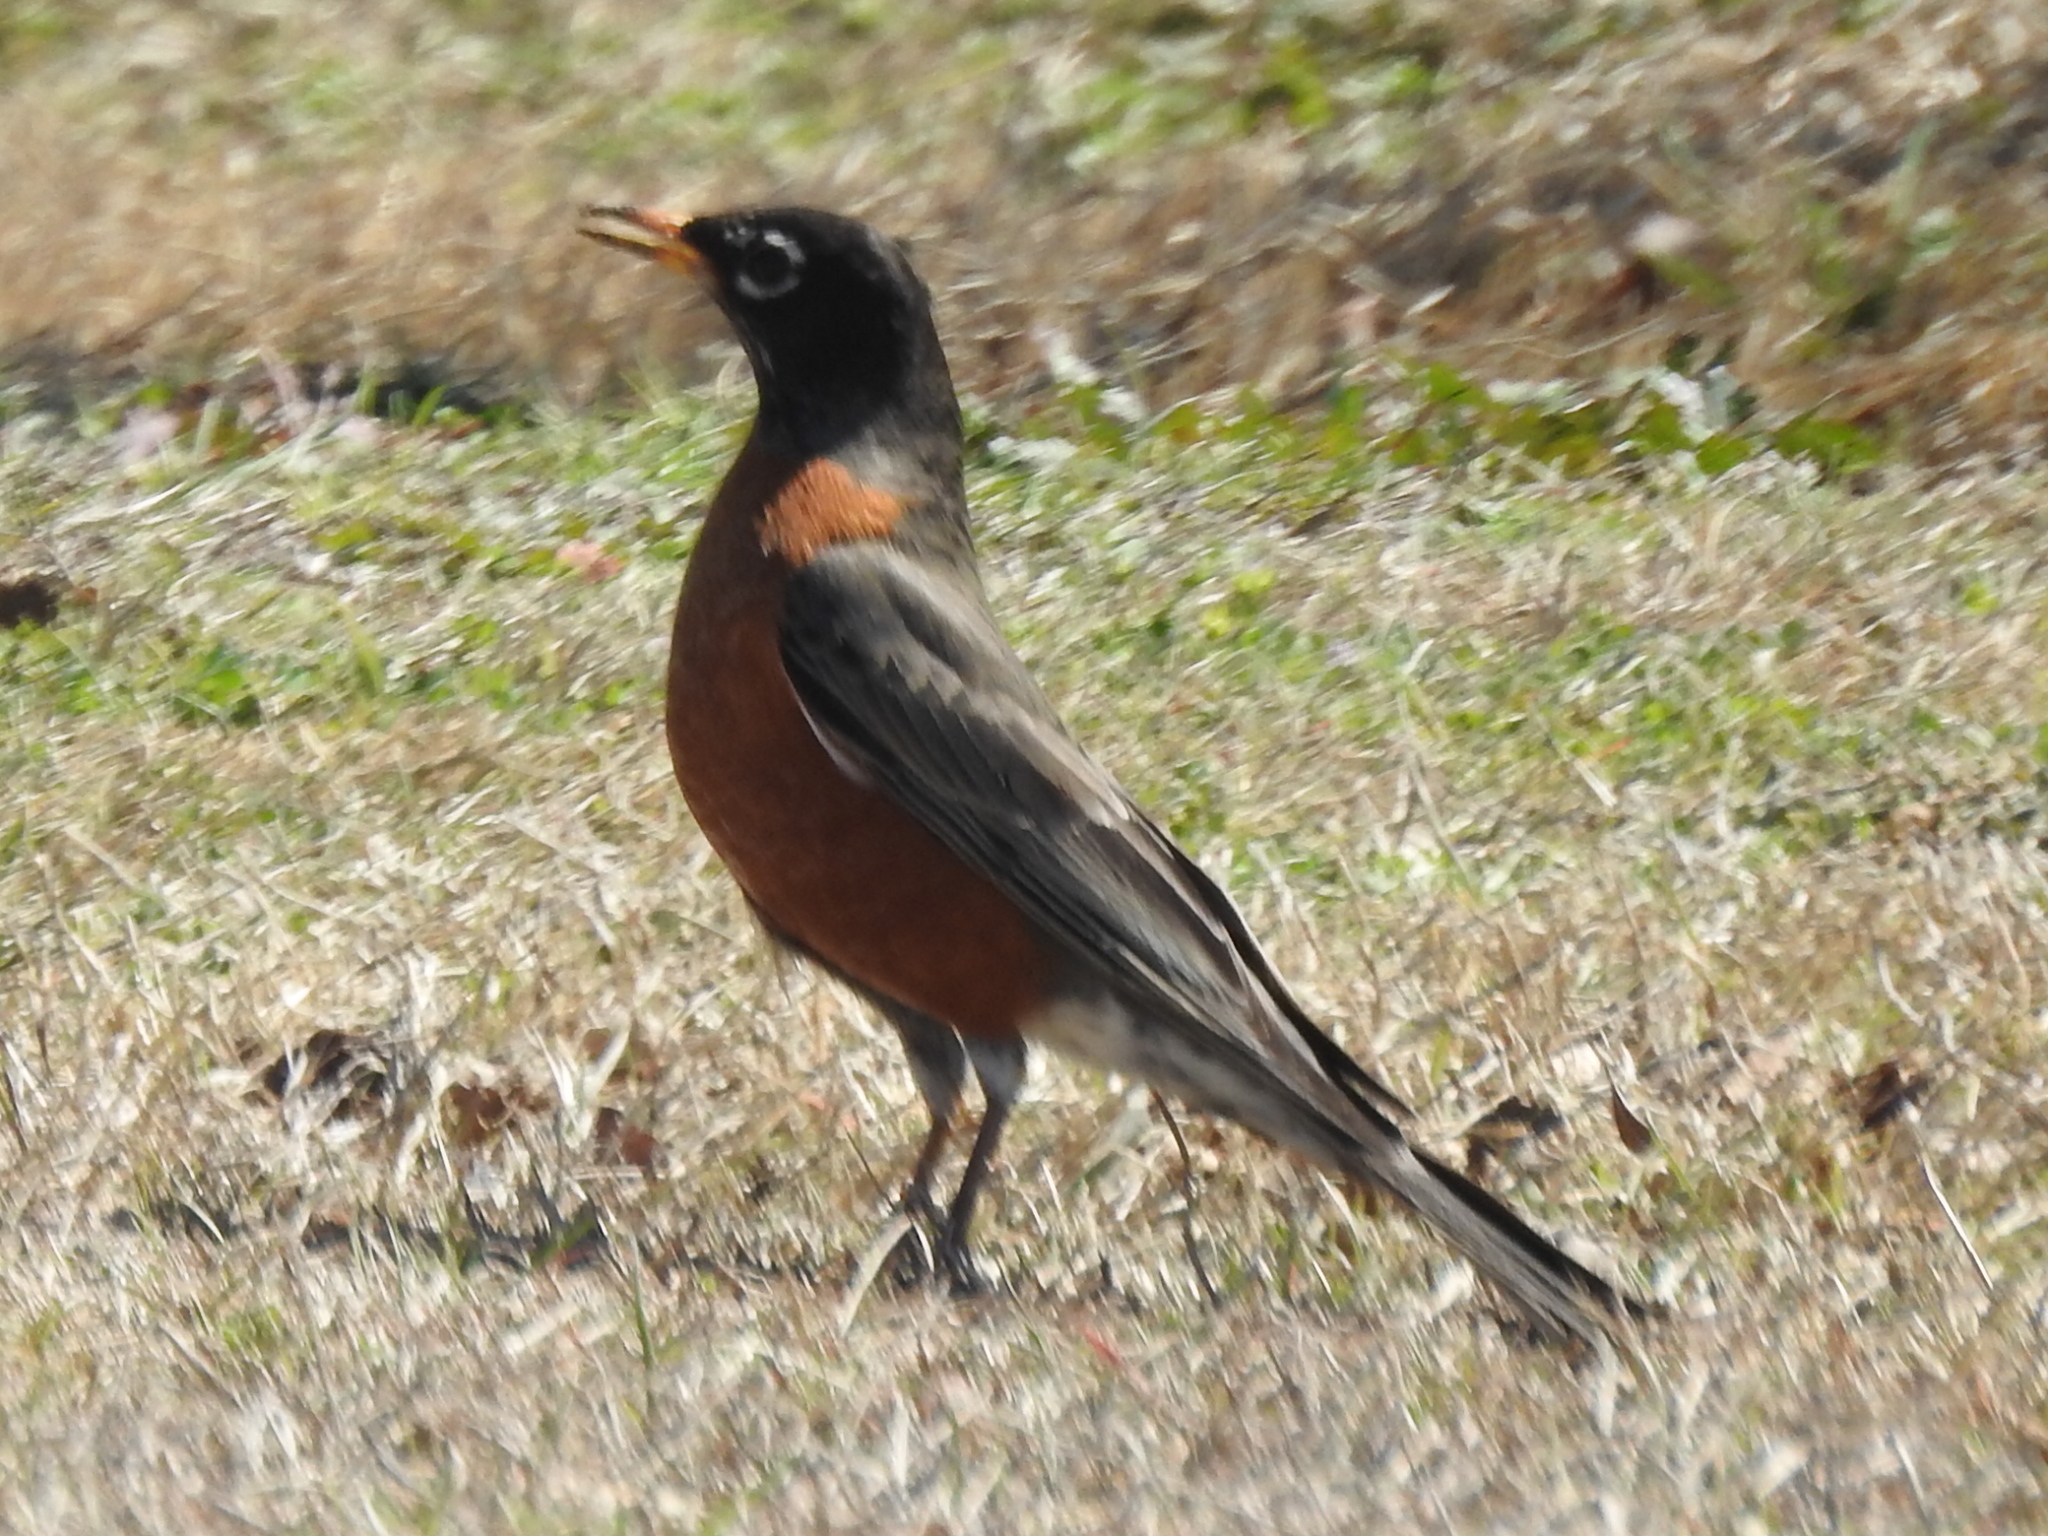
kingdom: Animalia
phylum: Chordata
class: Aves
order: Passeriformes
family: Turdidae
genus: Turdus
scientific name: Turdus migratorius
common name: American robin
